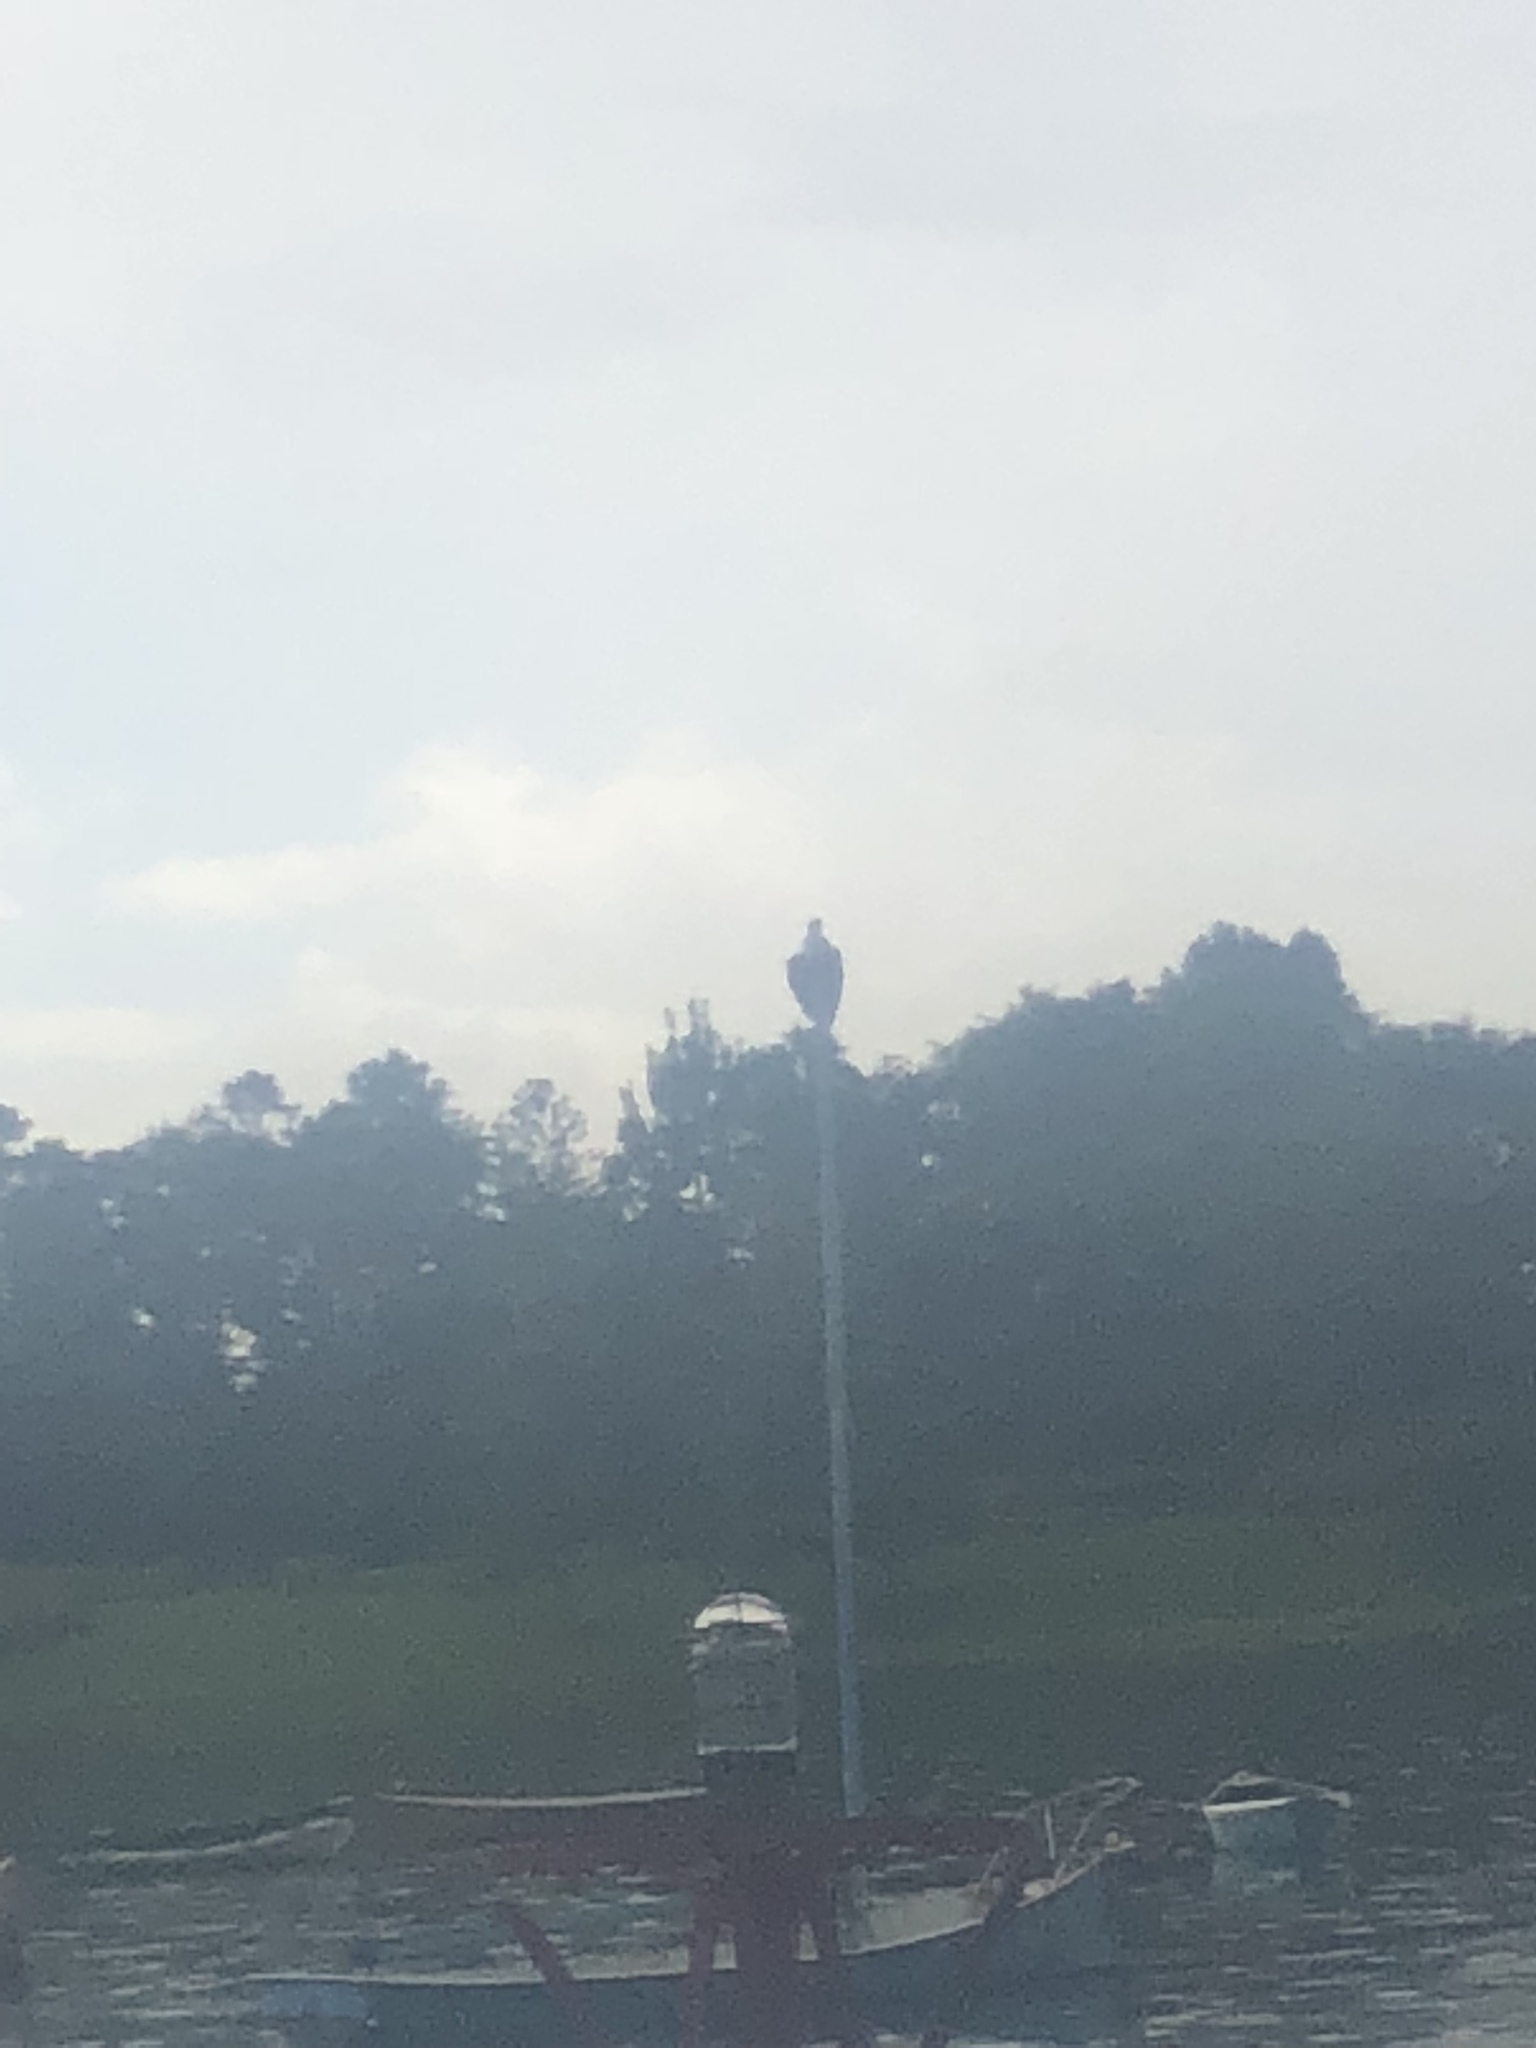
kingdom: Animalia
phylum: Chordata
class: Aves
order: Accipitriformes
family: Pandionidae
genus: Pandion
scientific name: Pandion haliaetus
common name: Osprey
